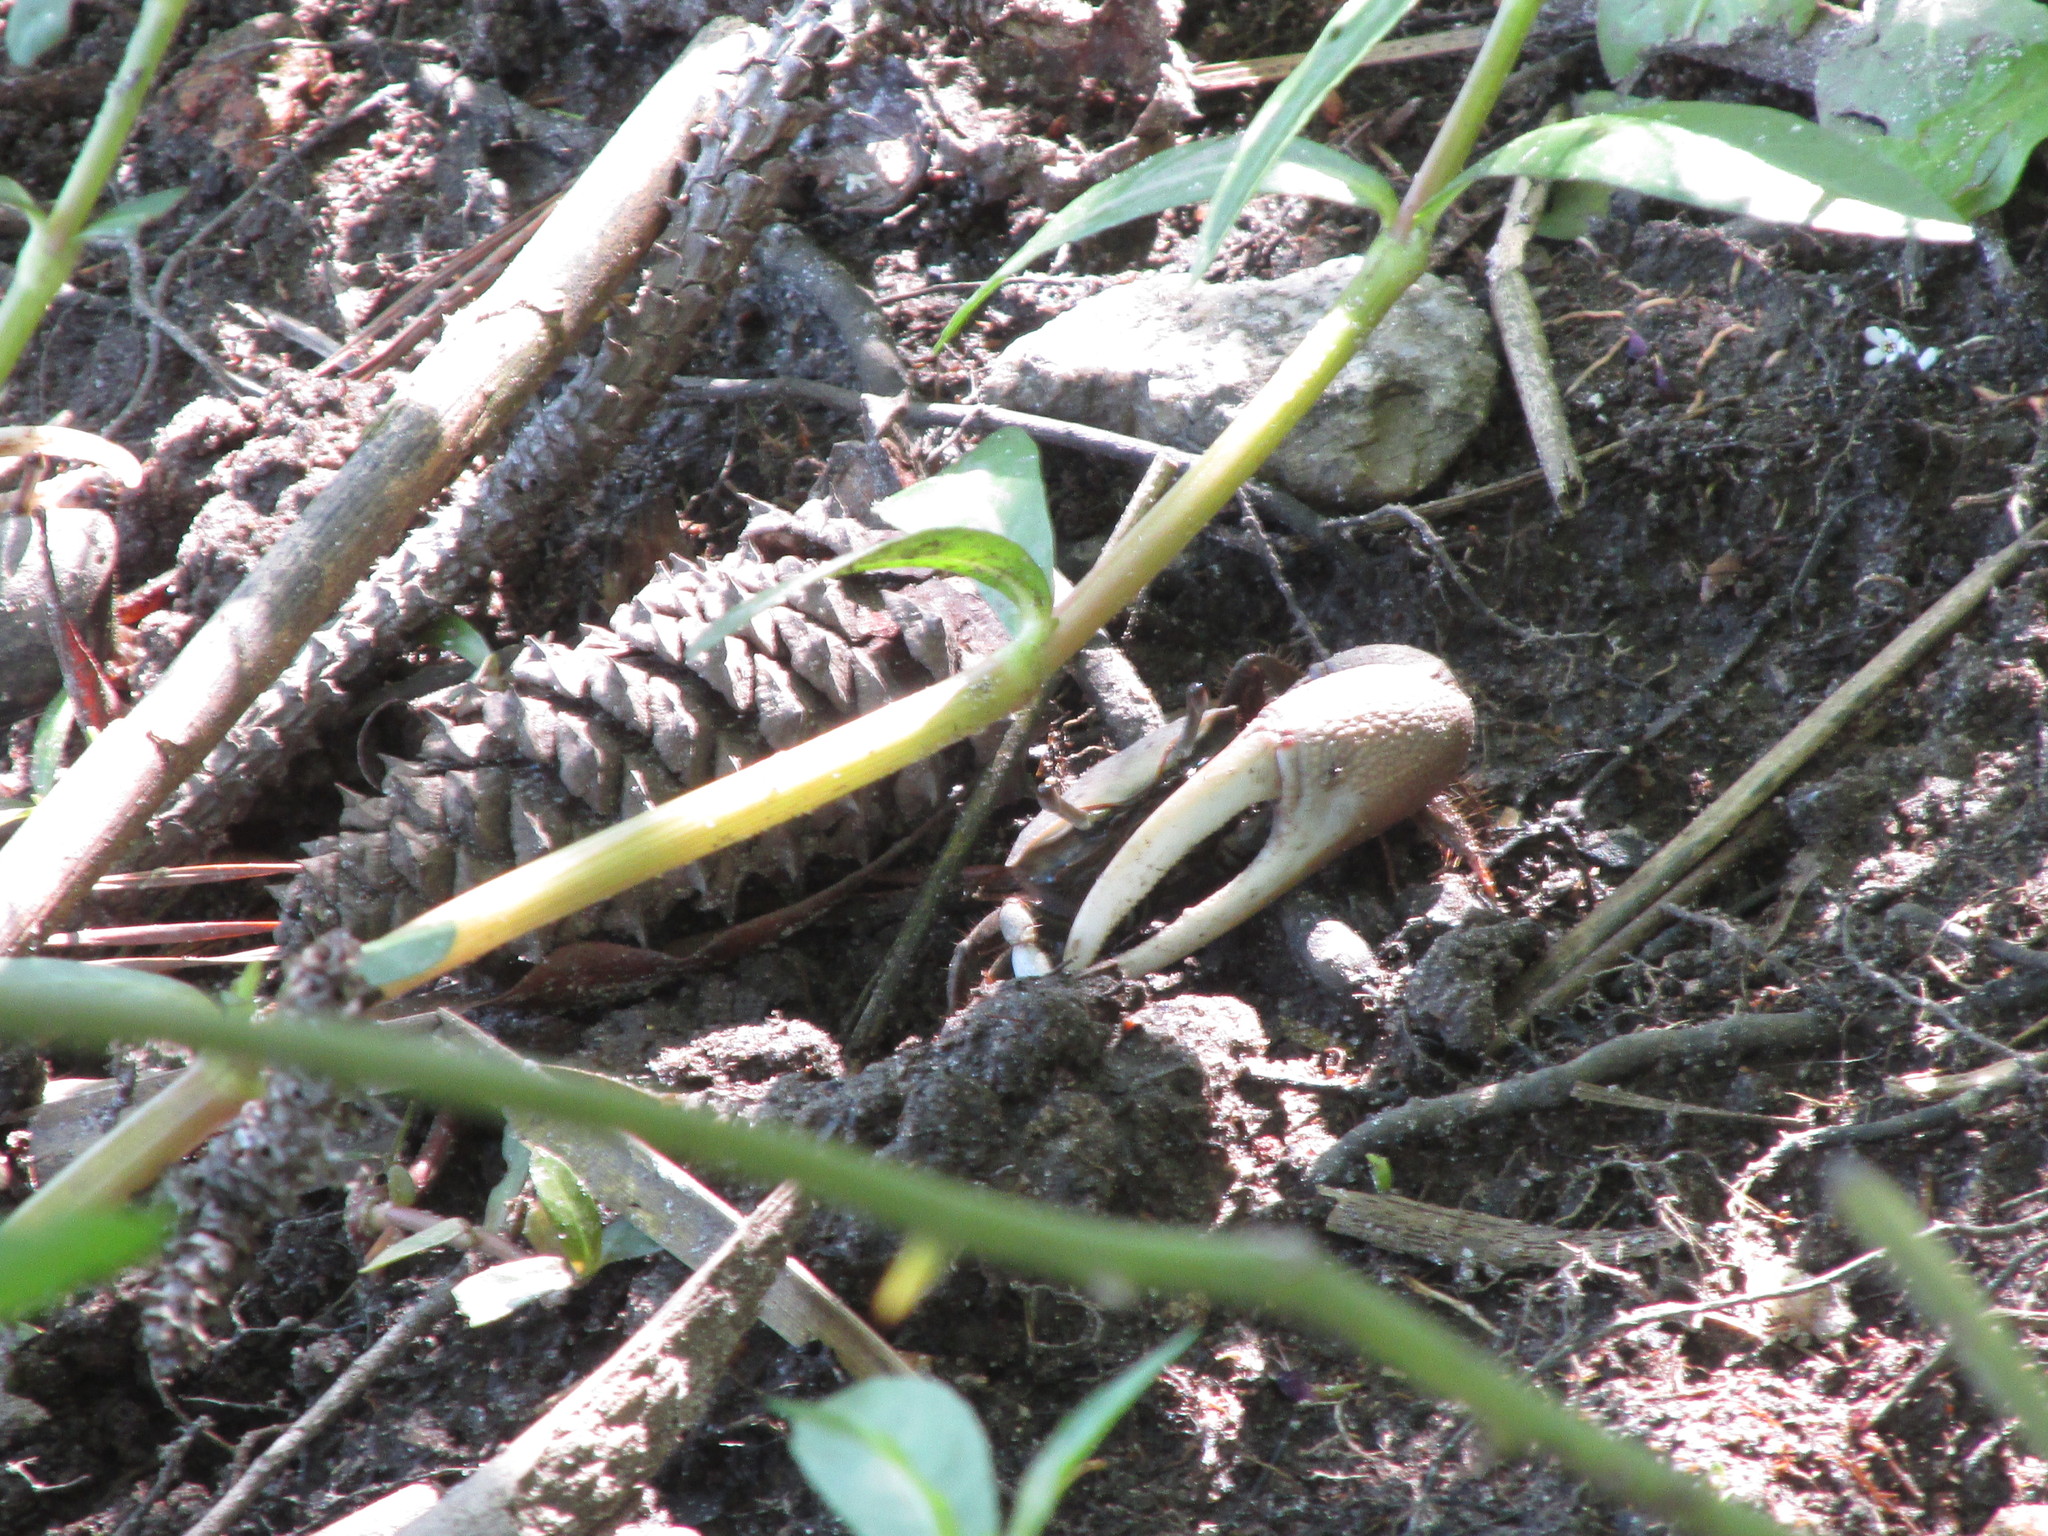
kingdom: Animalia
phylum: Arthropoda
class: Malacostraca
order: Decapoda
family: Ocypodidae
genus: Minuca
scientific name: Minuca minax
